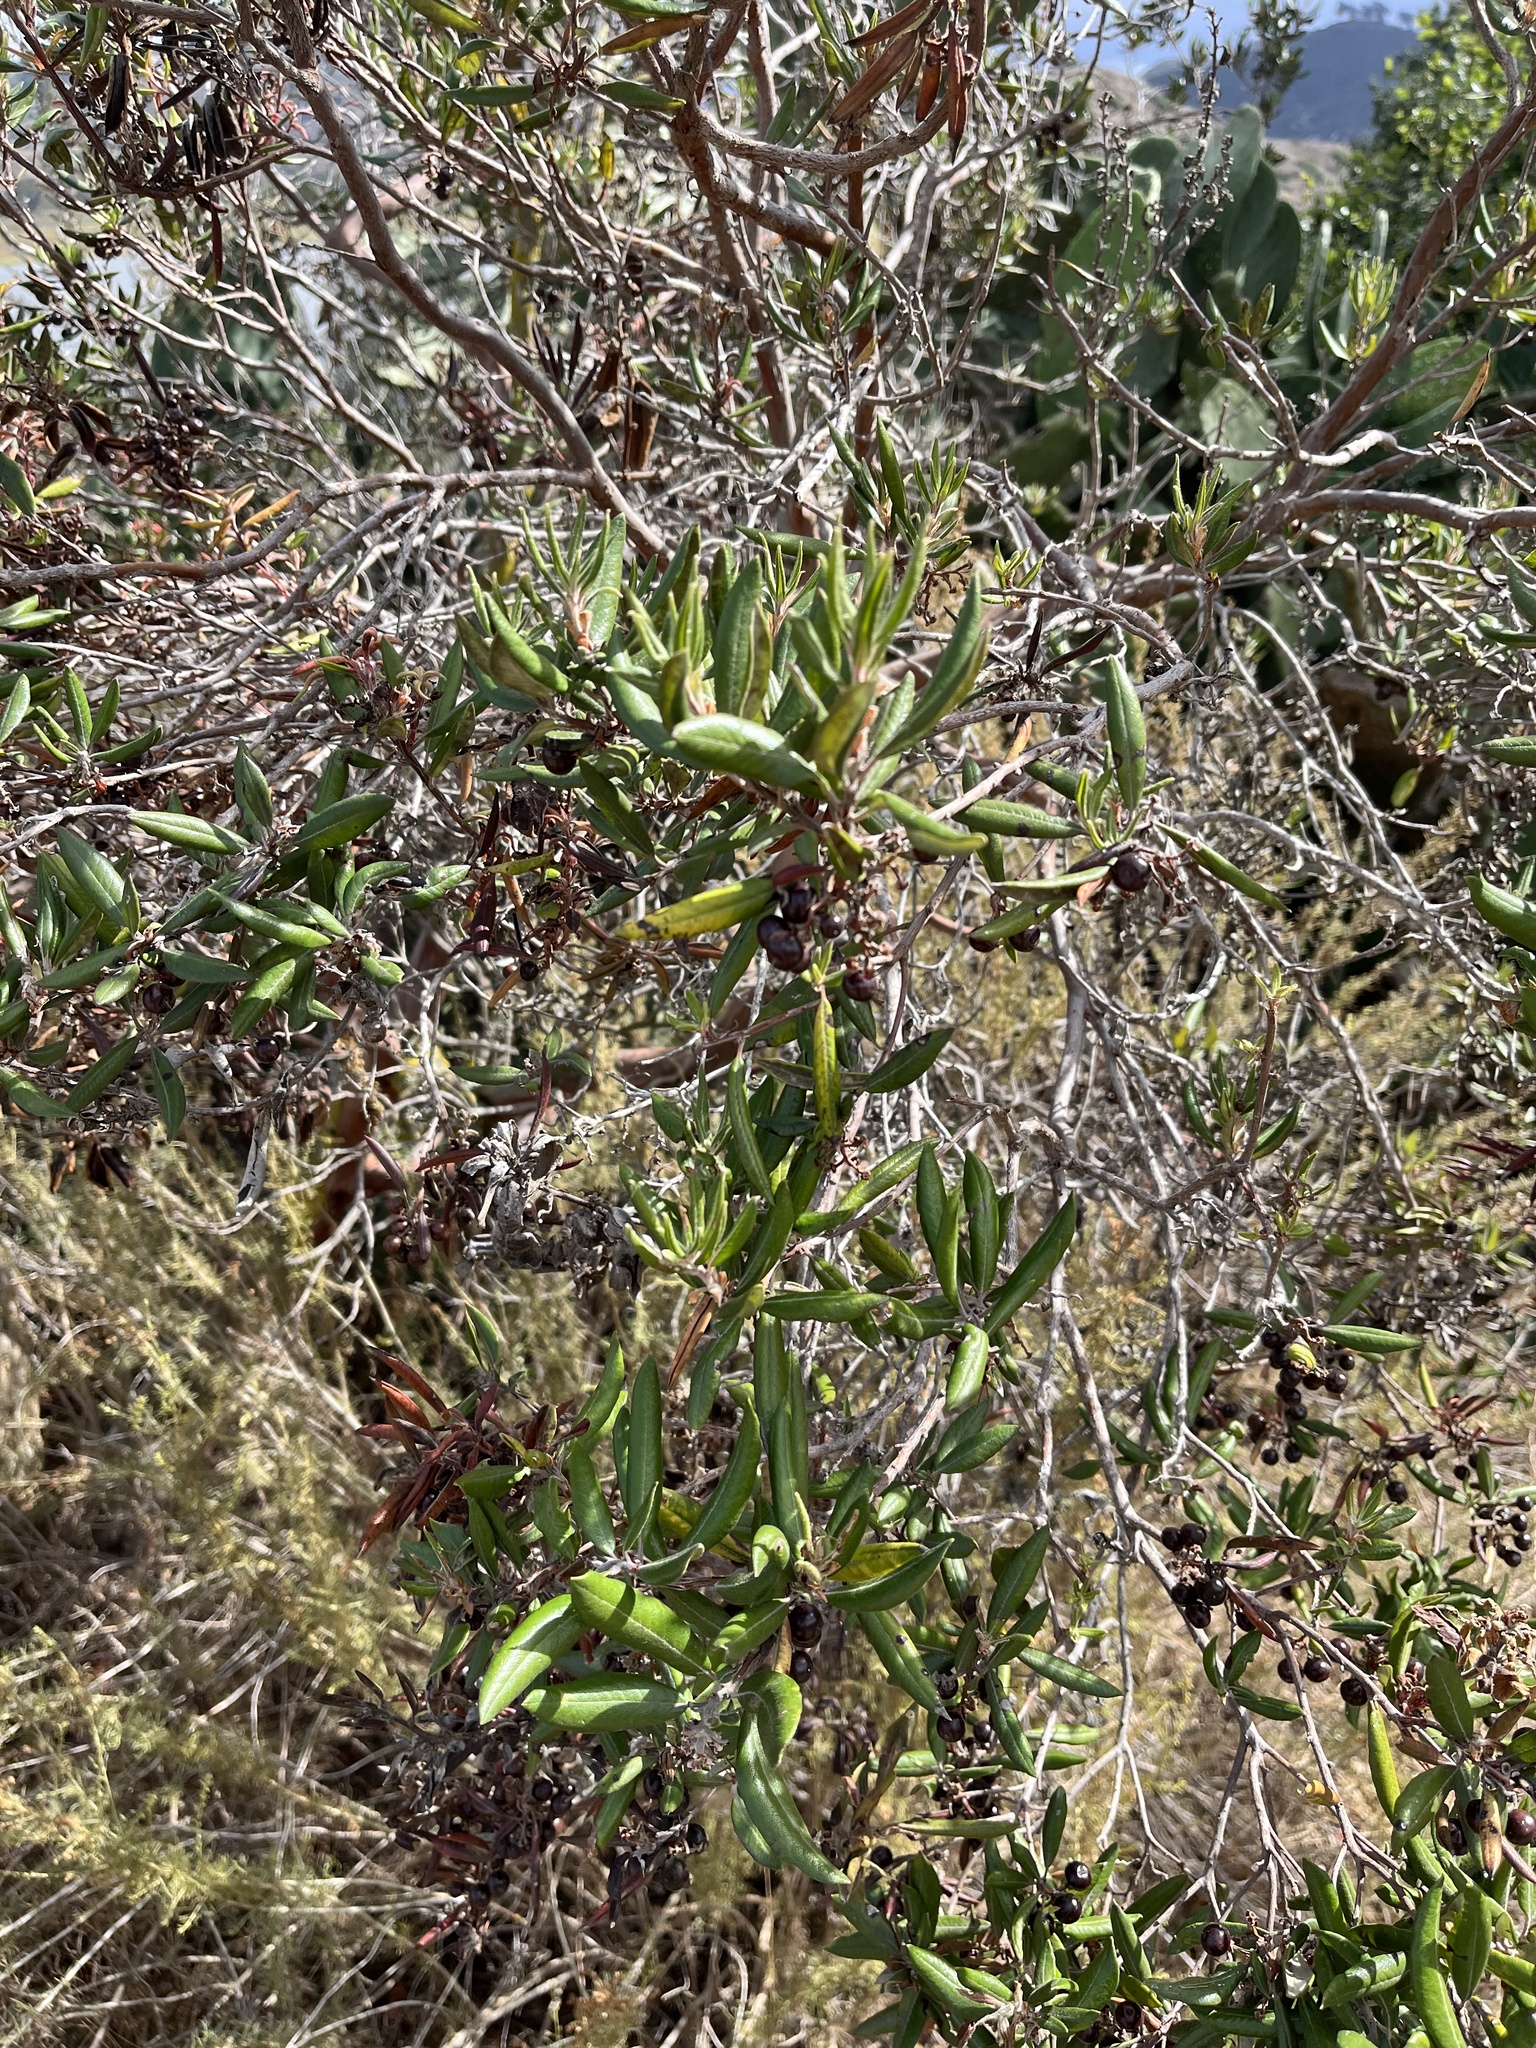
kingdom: Plantae
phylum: Tracheophyta
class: Magnoliopsida
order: Ericales
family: Ericaceae
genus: Arctostaphylos
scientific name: Arctostaphylos bicolor
